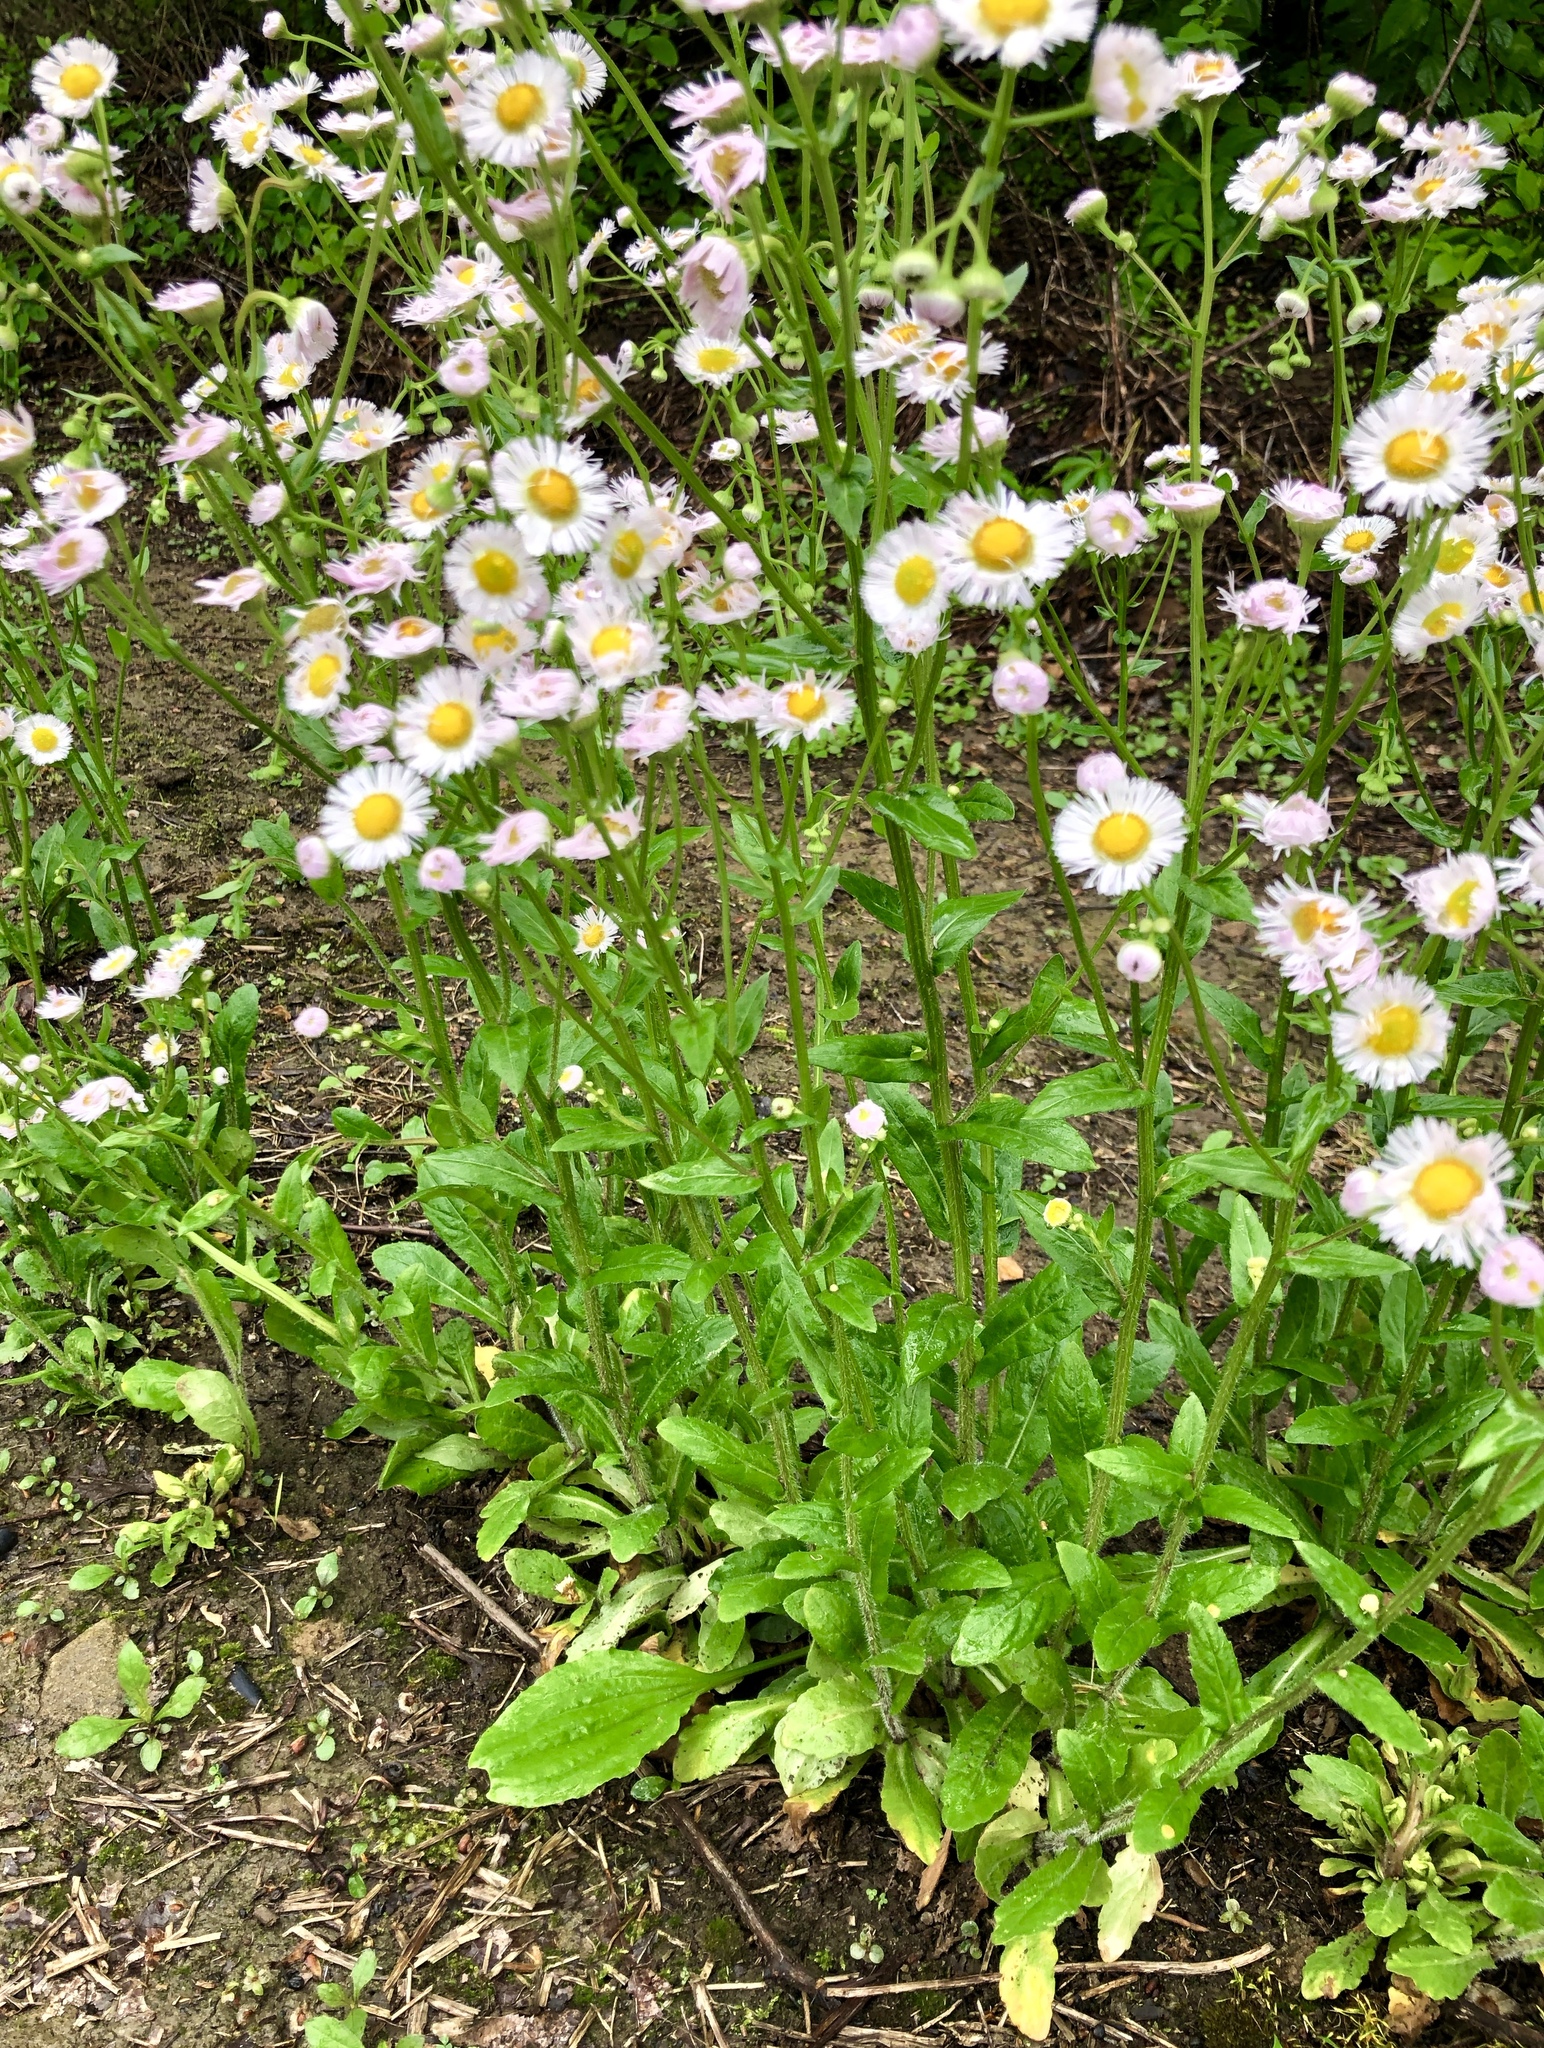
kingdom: Plantae
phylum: Tracheophyta
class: Magnoliopsida
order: Asterales
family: Asteraceae
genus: Erigeron
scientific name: Erigeron philadelphicus
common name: Robin's-plantain
